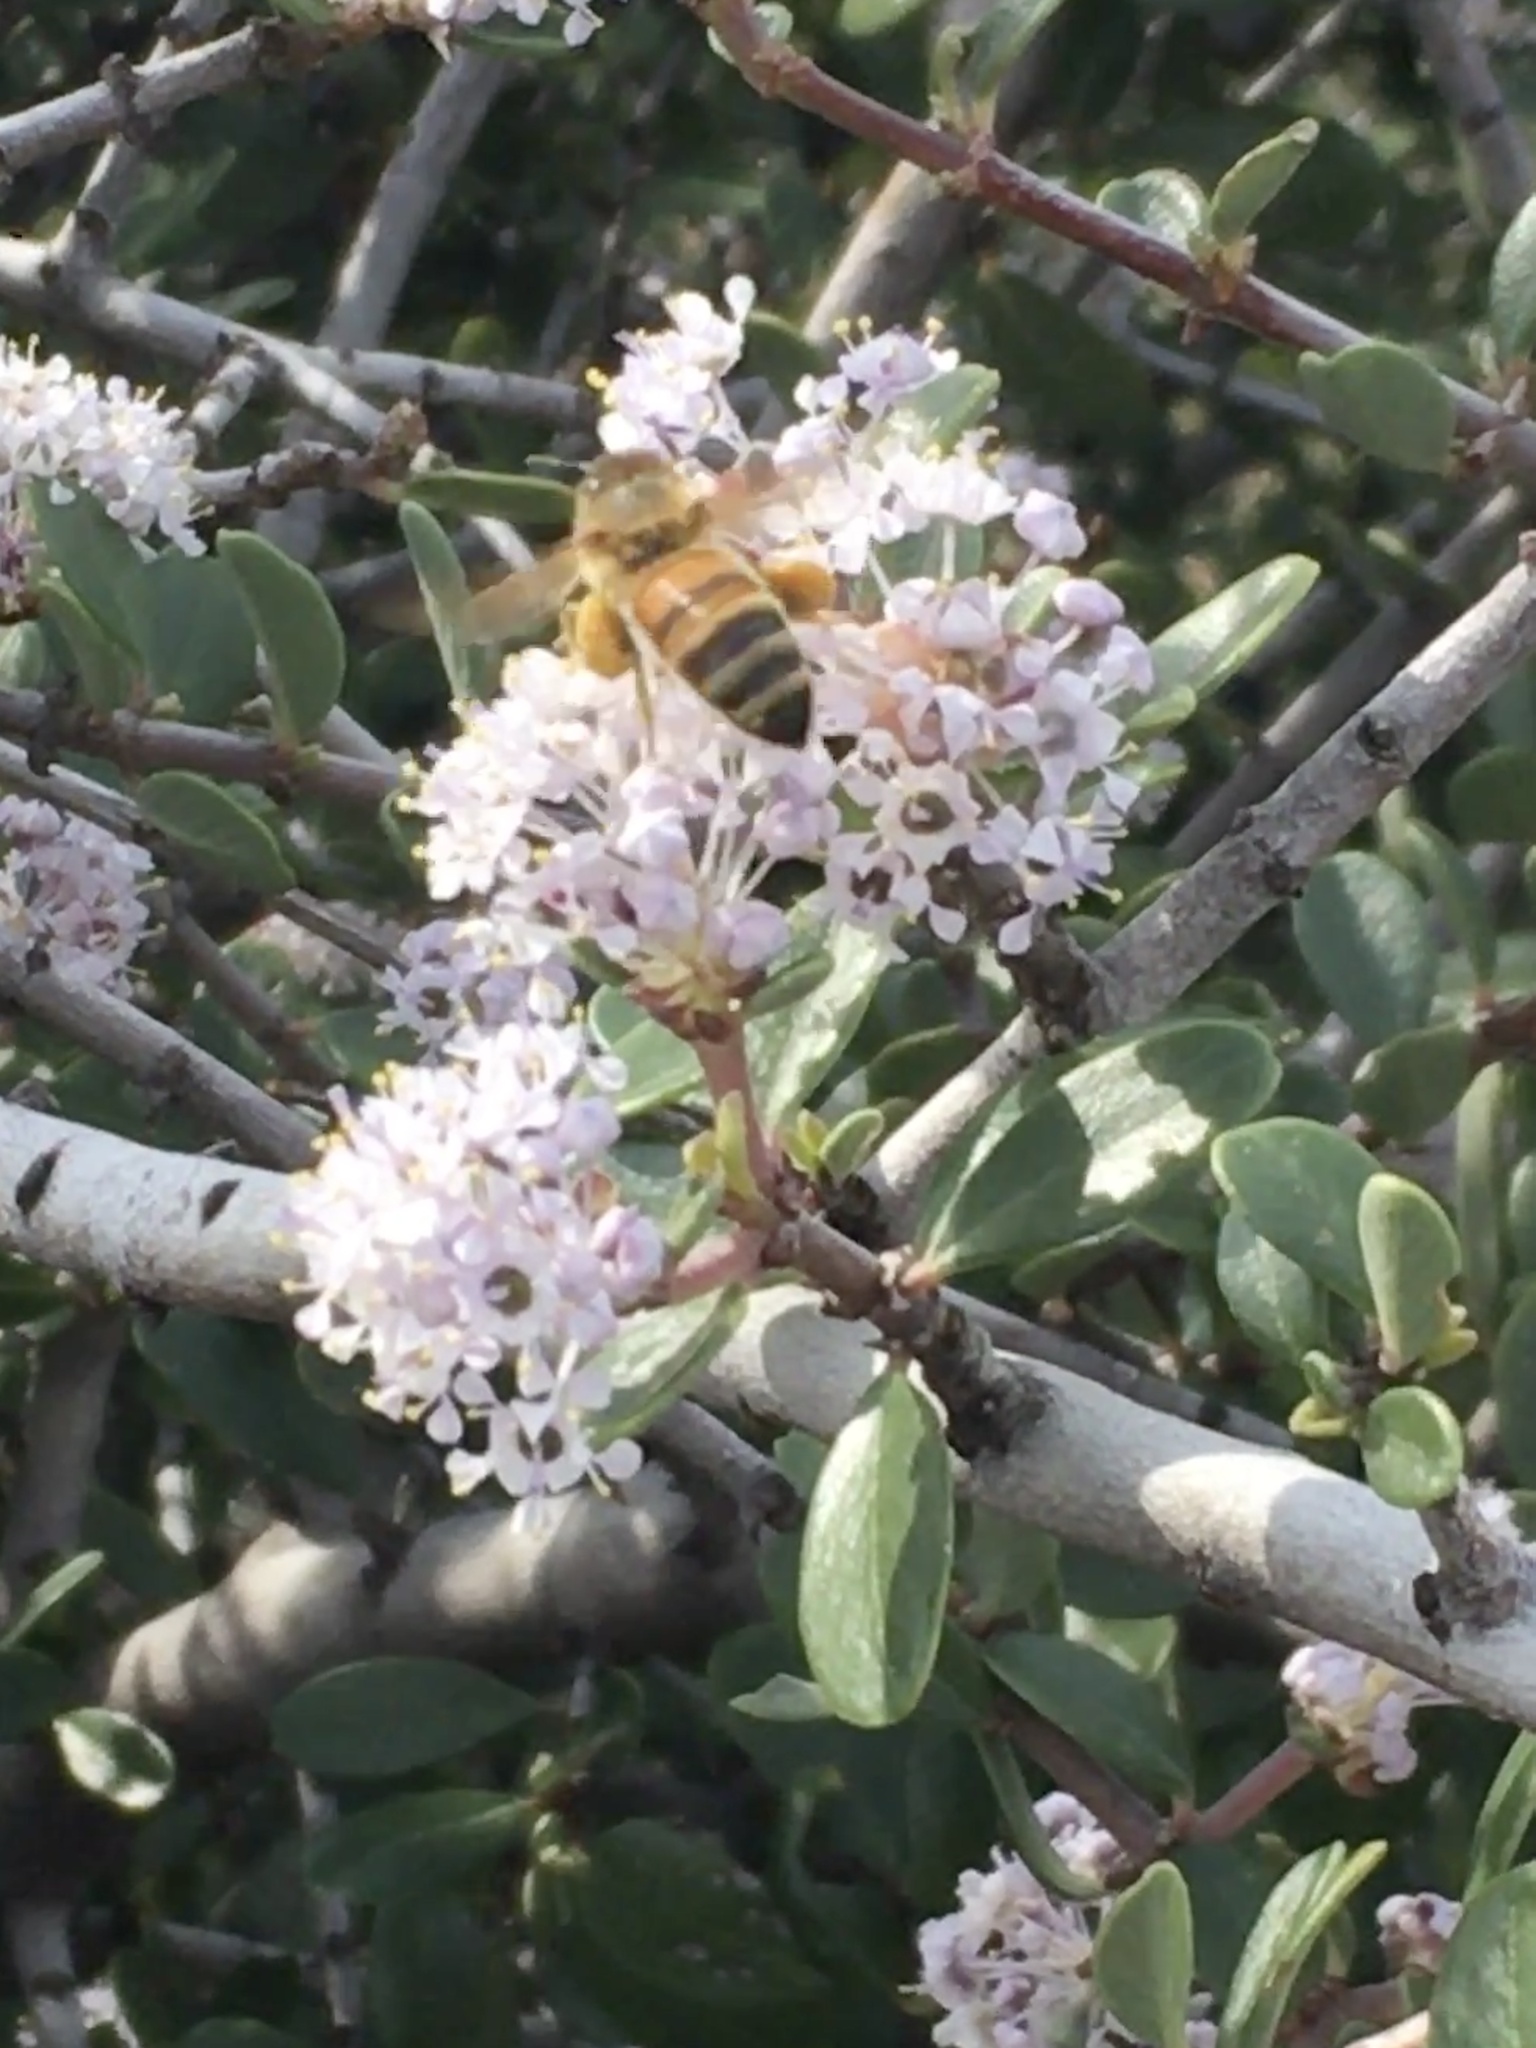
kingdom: Animalia
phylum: Arthropoda
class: Insecta
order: Hymenoptera
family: Apidae
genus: Apis
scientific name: Apis mellifera
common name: Honey bee
